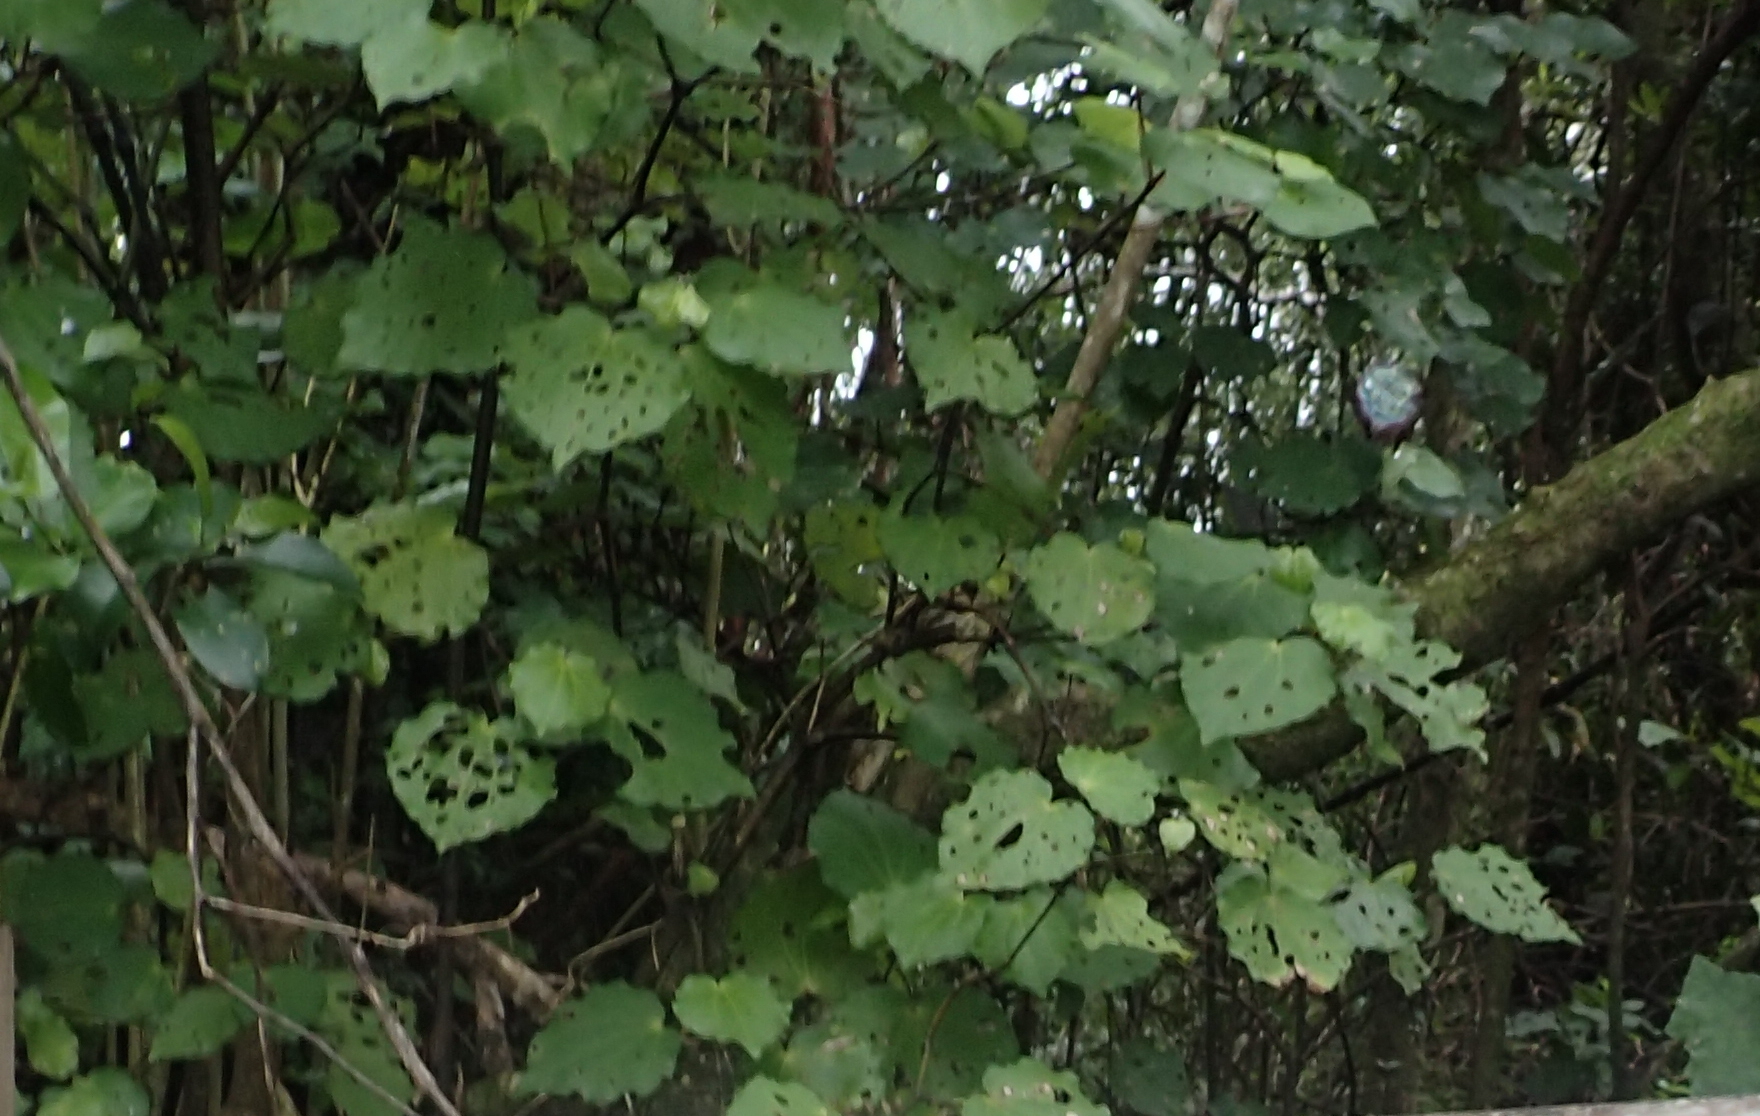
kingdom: Plantae
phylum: Tracheophyta
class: Magnoliopsida
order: Piperales
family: Piperaceae
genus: Macropiper
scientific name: Macropiper excelsum
